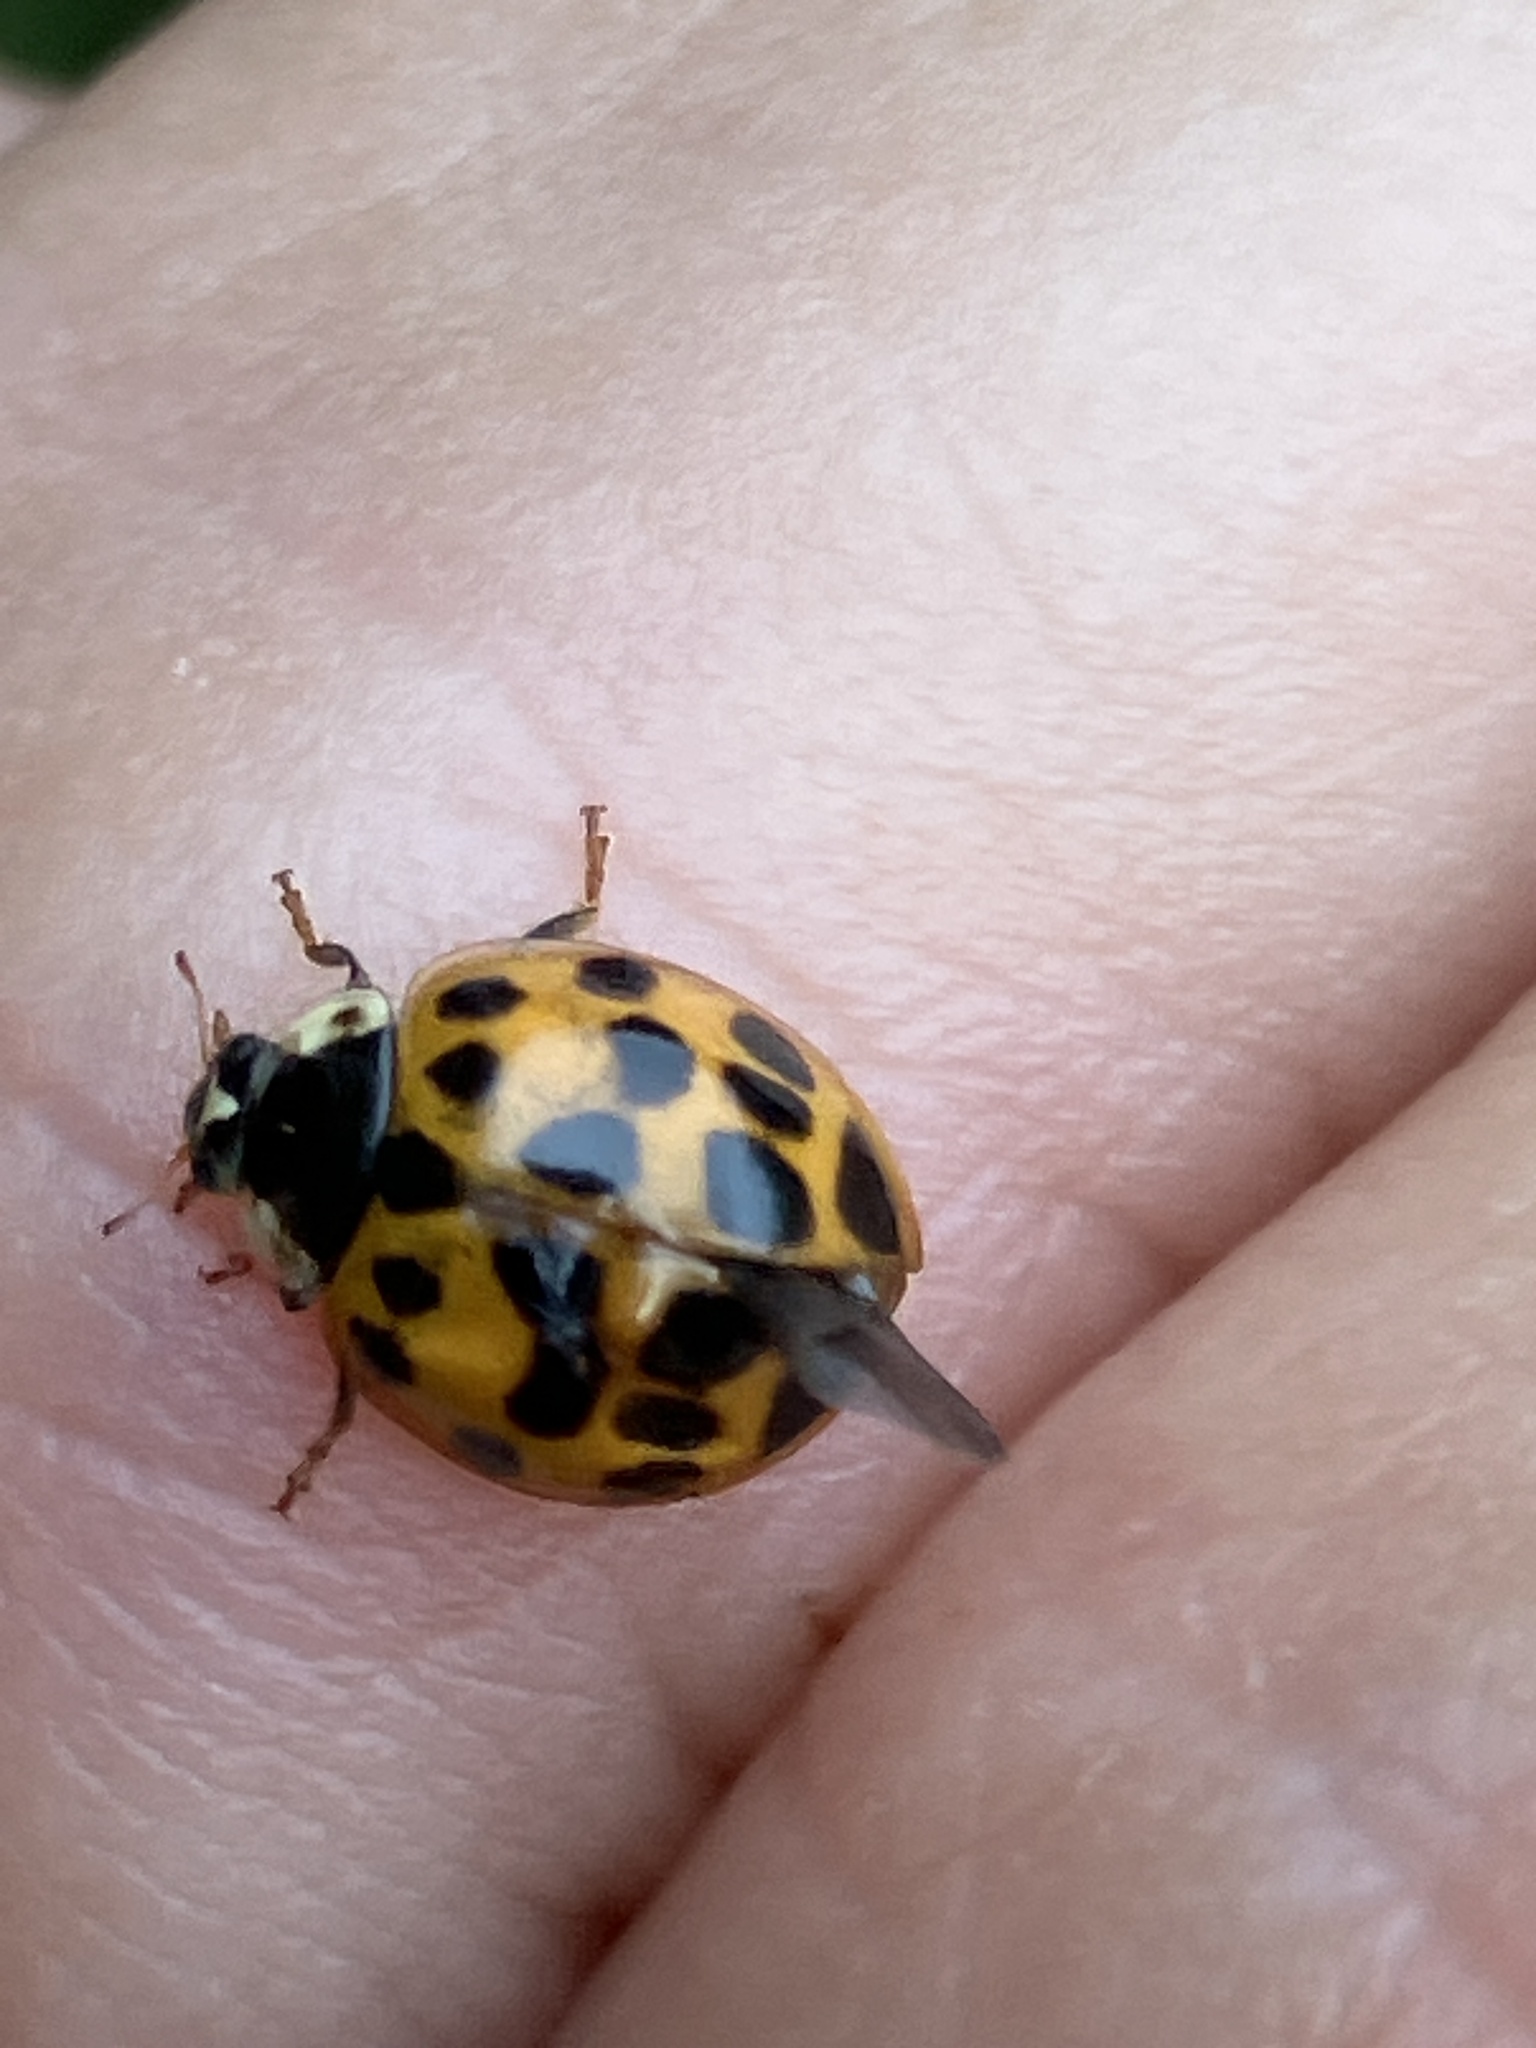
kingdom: Animalia
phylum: Arthropoda
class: Insecta
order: Coleoptera
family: Coccinellidae
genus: Harmonia
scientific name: Harmonia axyridis
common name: Harlequin ladybird
